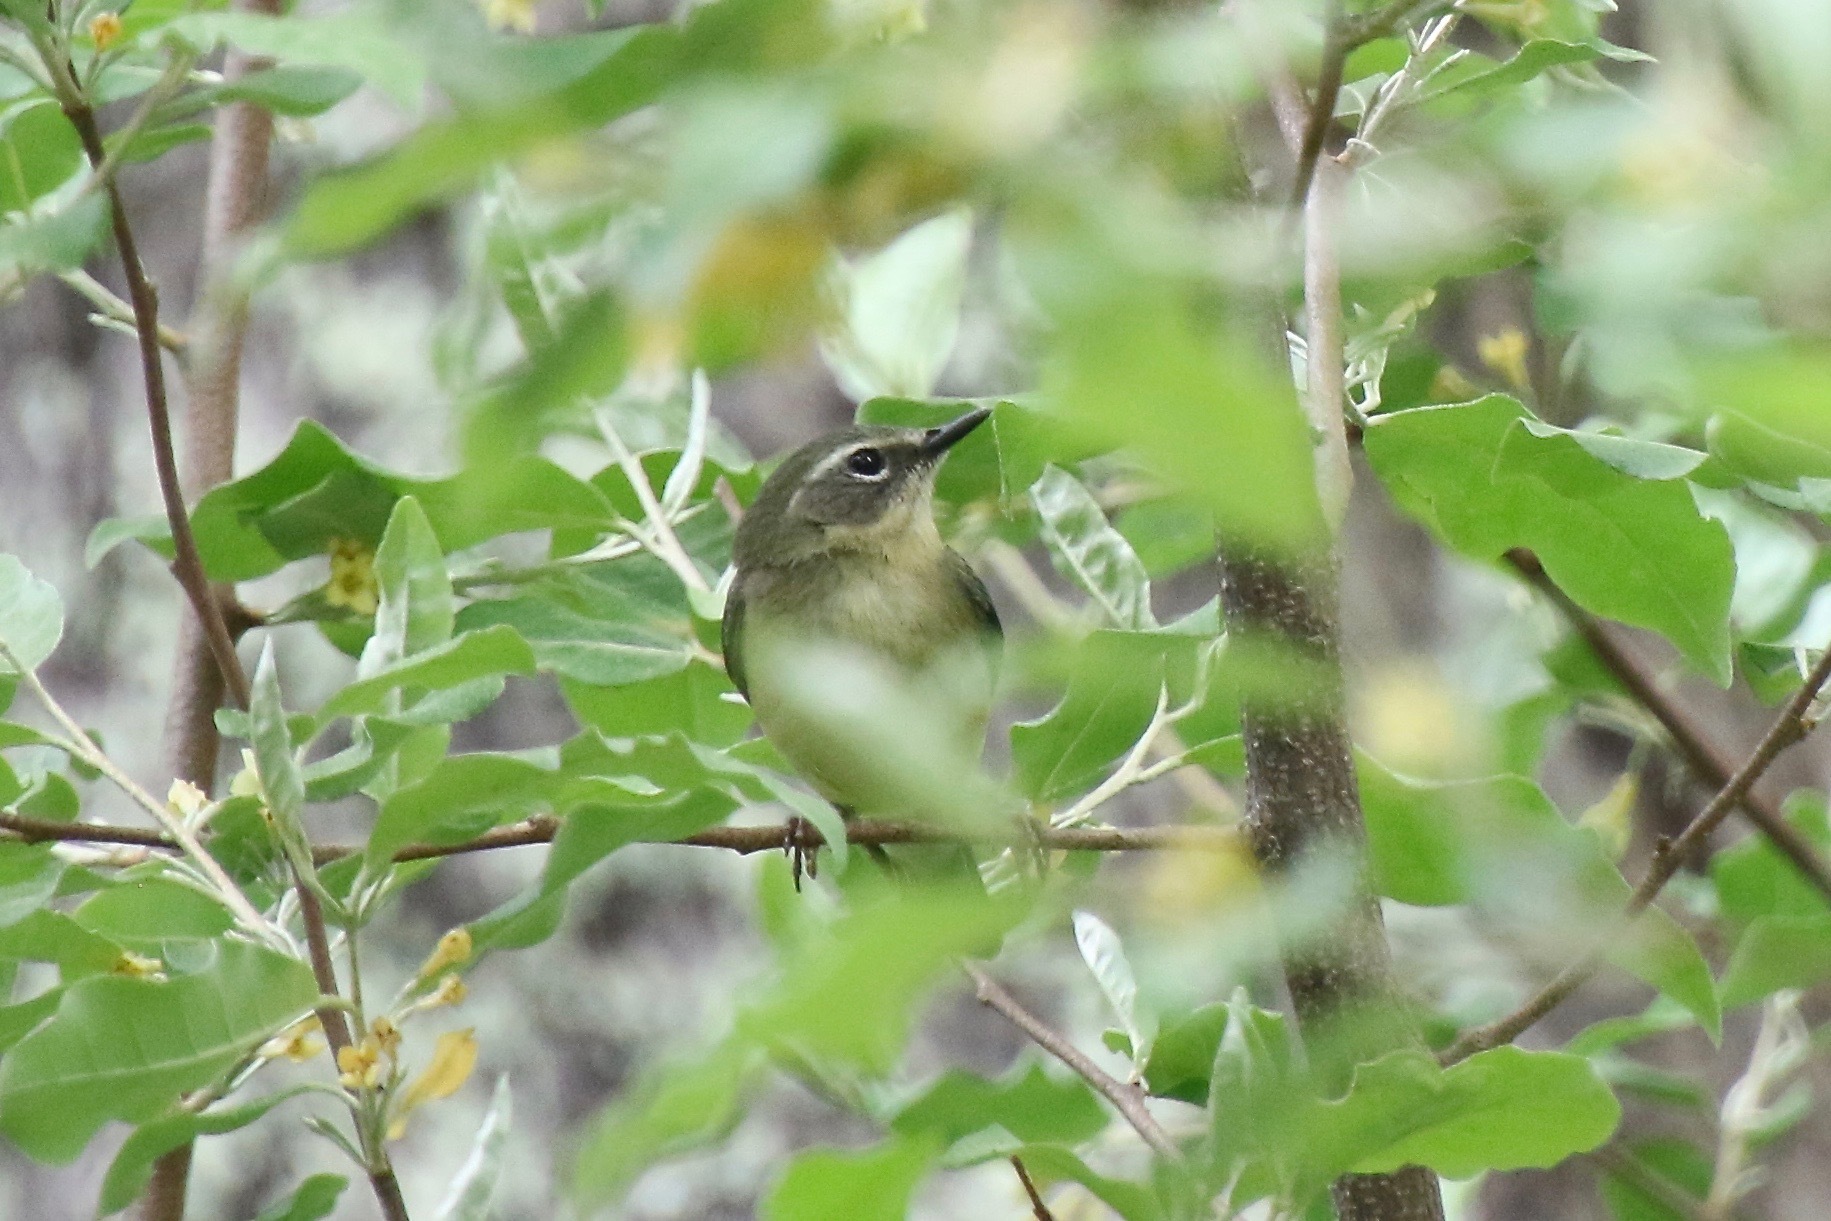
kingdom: Animalia
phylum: Chordata
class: Aves
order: Passeriformes
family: Parulidae
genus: Setophaga
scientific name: Setophaga caerulescens
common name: Black-throated blue warbler
